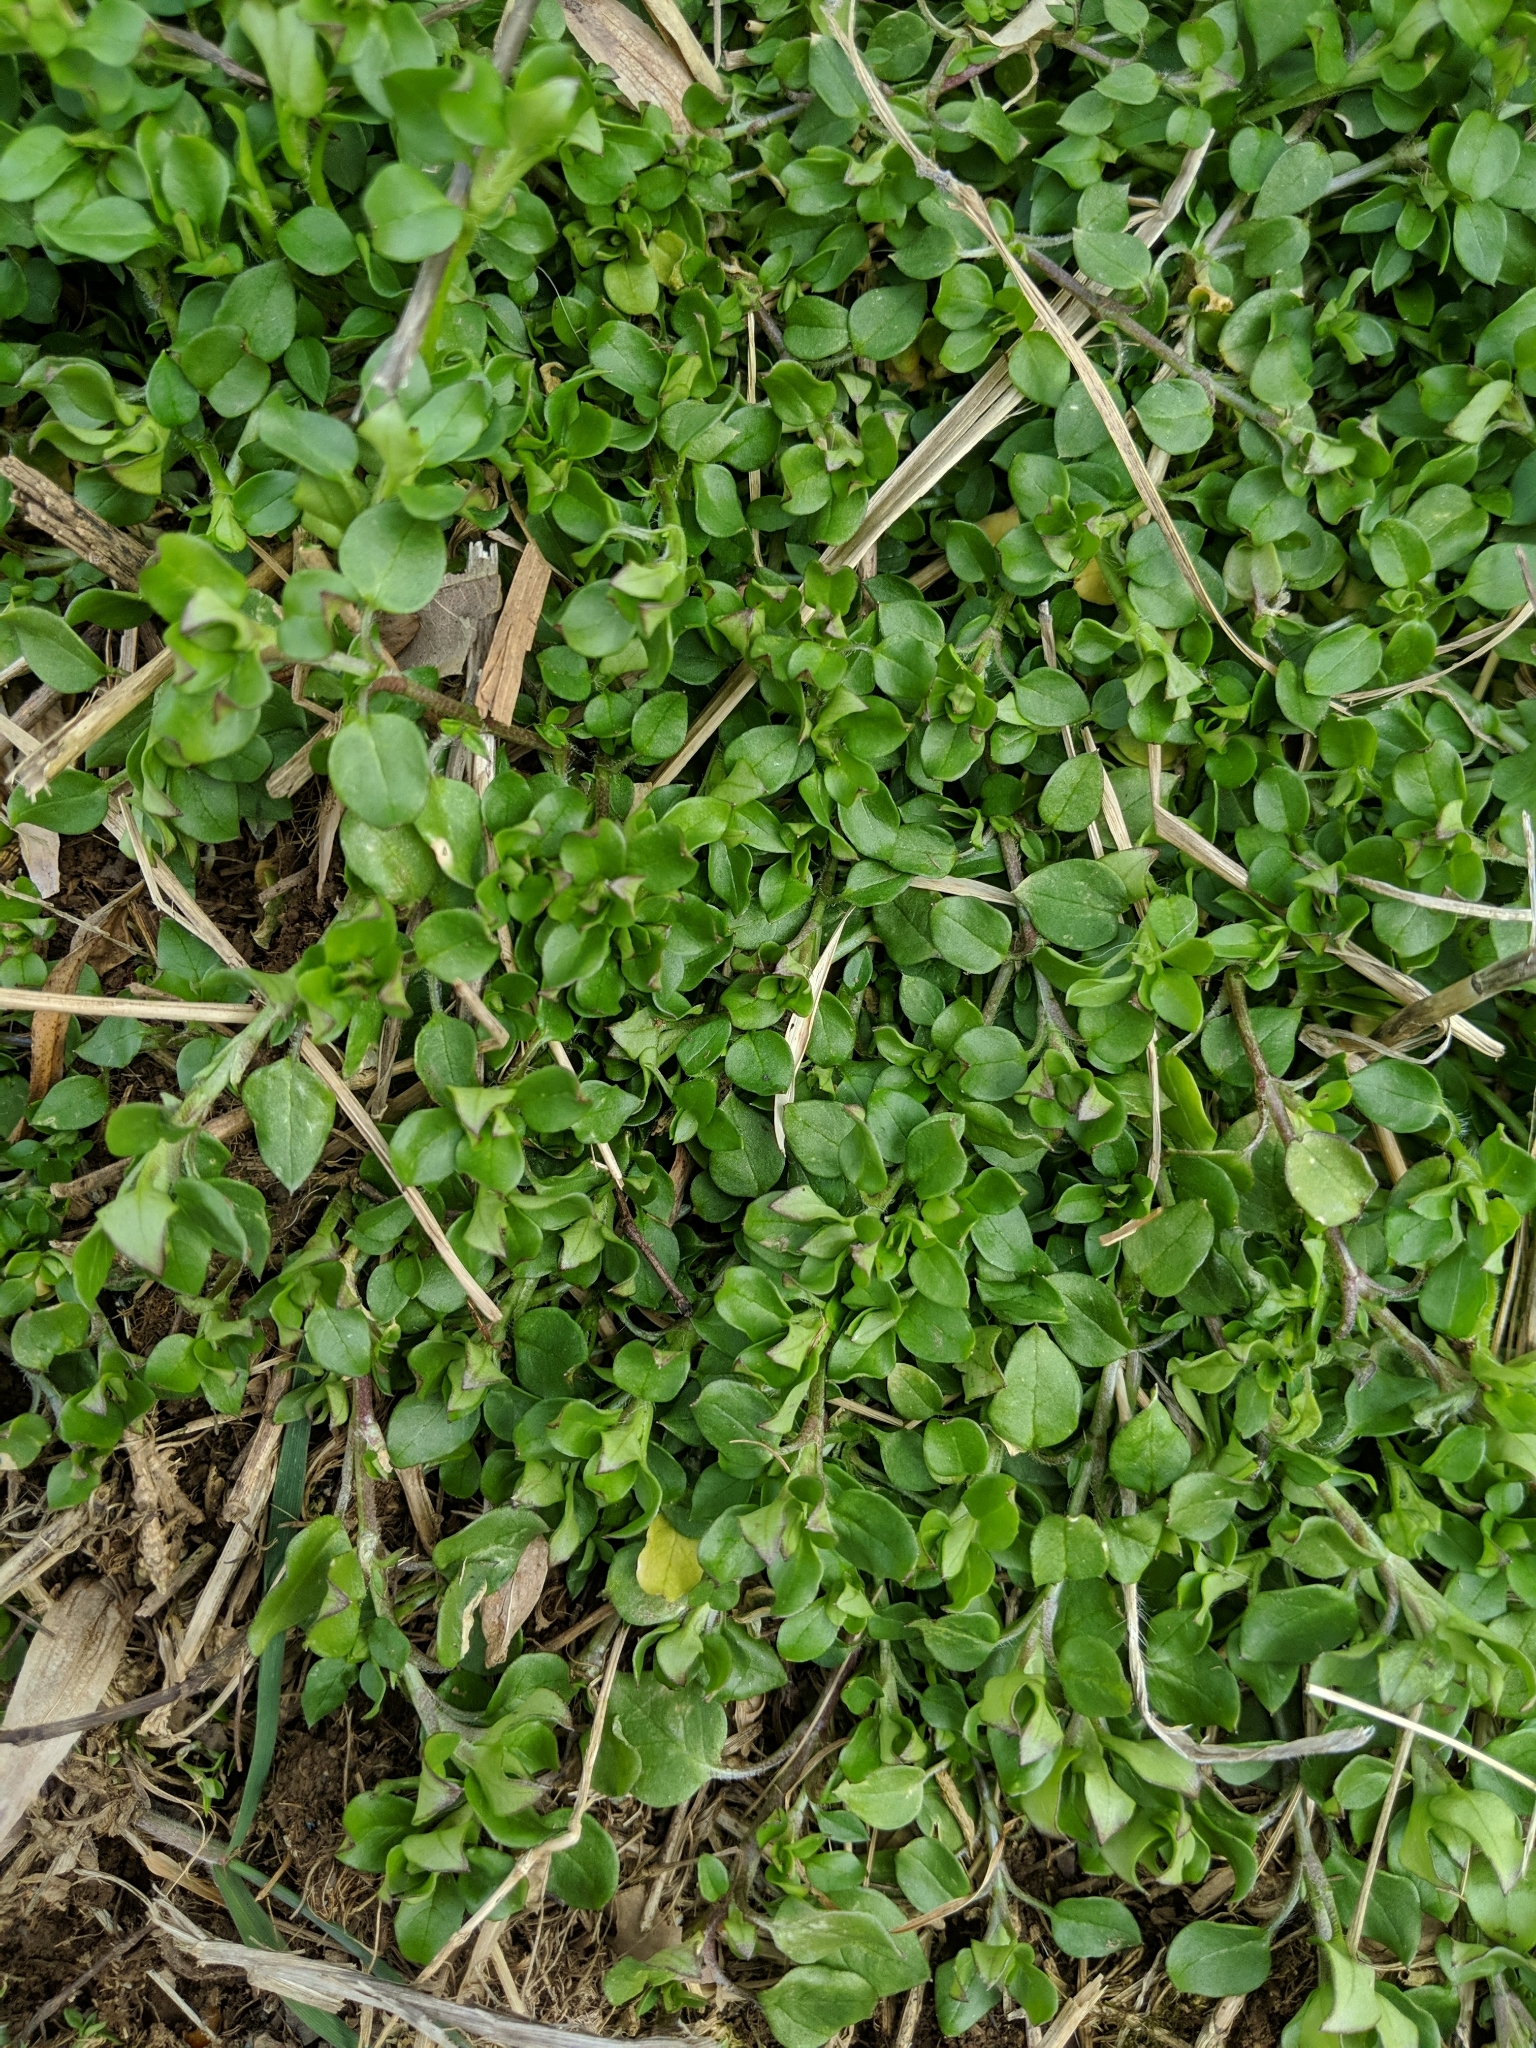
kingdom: Plantae
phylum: Tracheophyta
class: Magnoliopsida
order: Caryophyllales
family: Caryophyllaceae
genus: Stellaria
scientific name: Stellaria media
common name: Common chickweed
